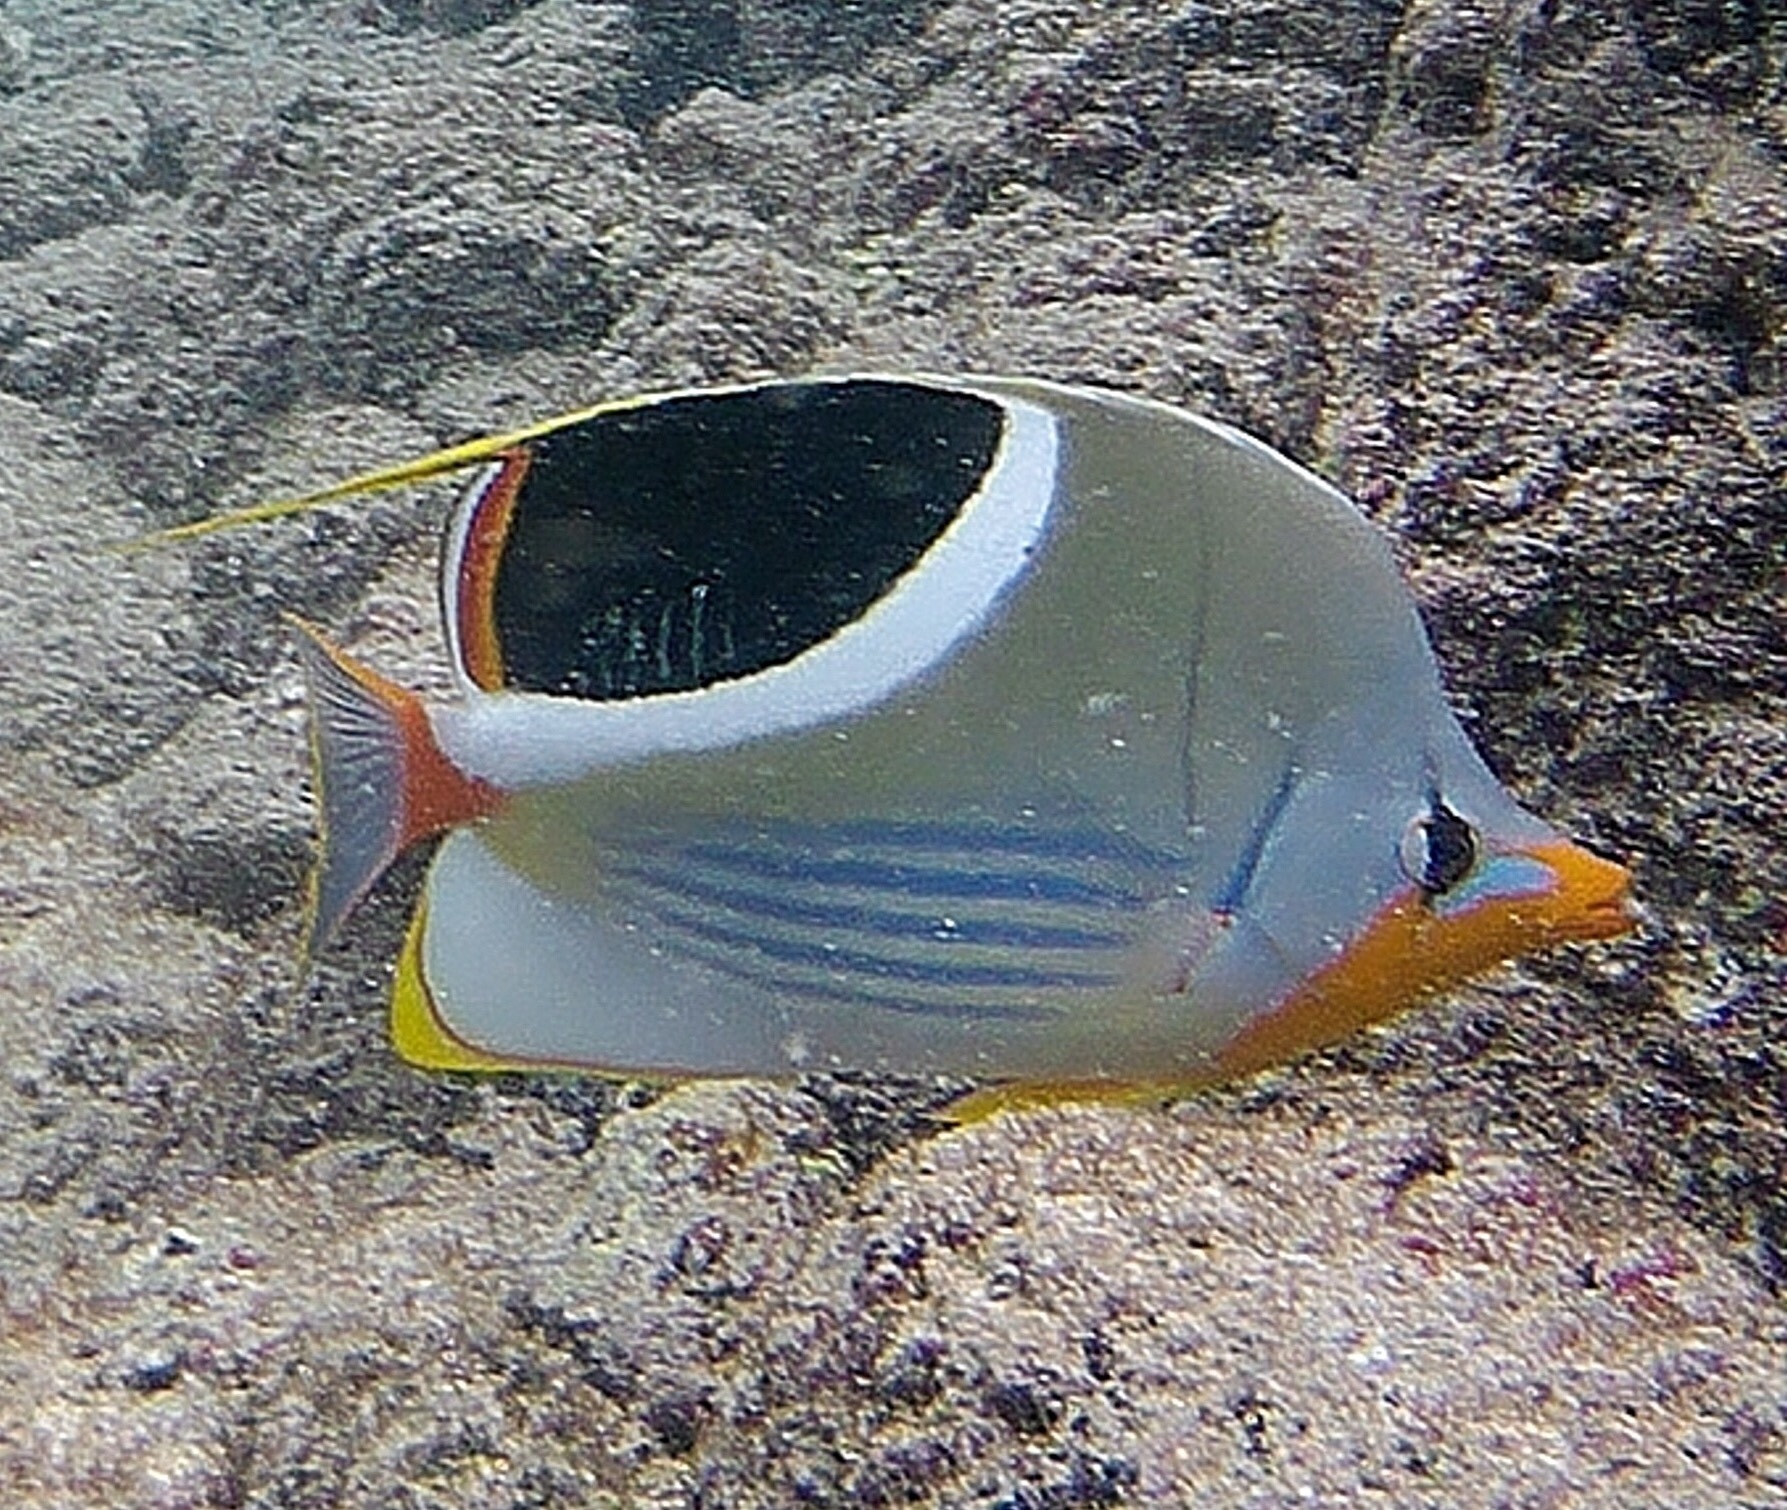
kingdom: Animalia
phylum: Chordata
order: Perciformes
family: Chaetodontidae
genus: Chaetodon
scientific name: Chaetodon ephippium
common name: Saddled butterflyfish
